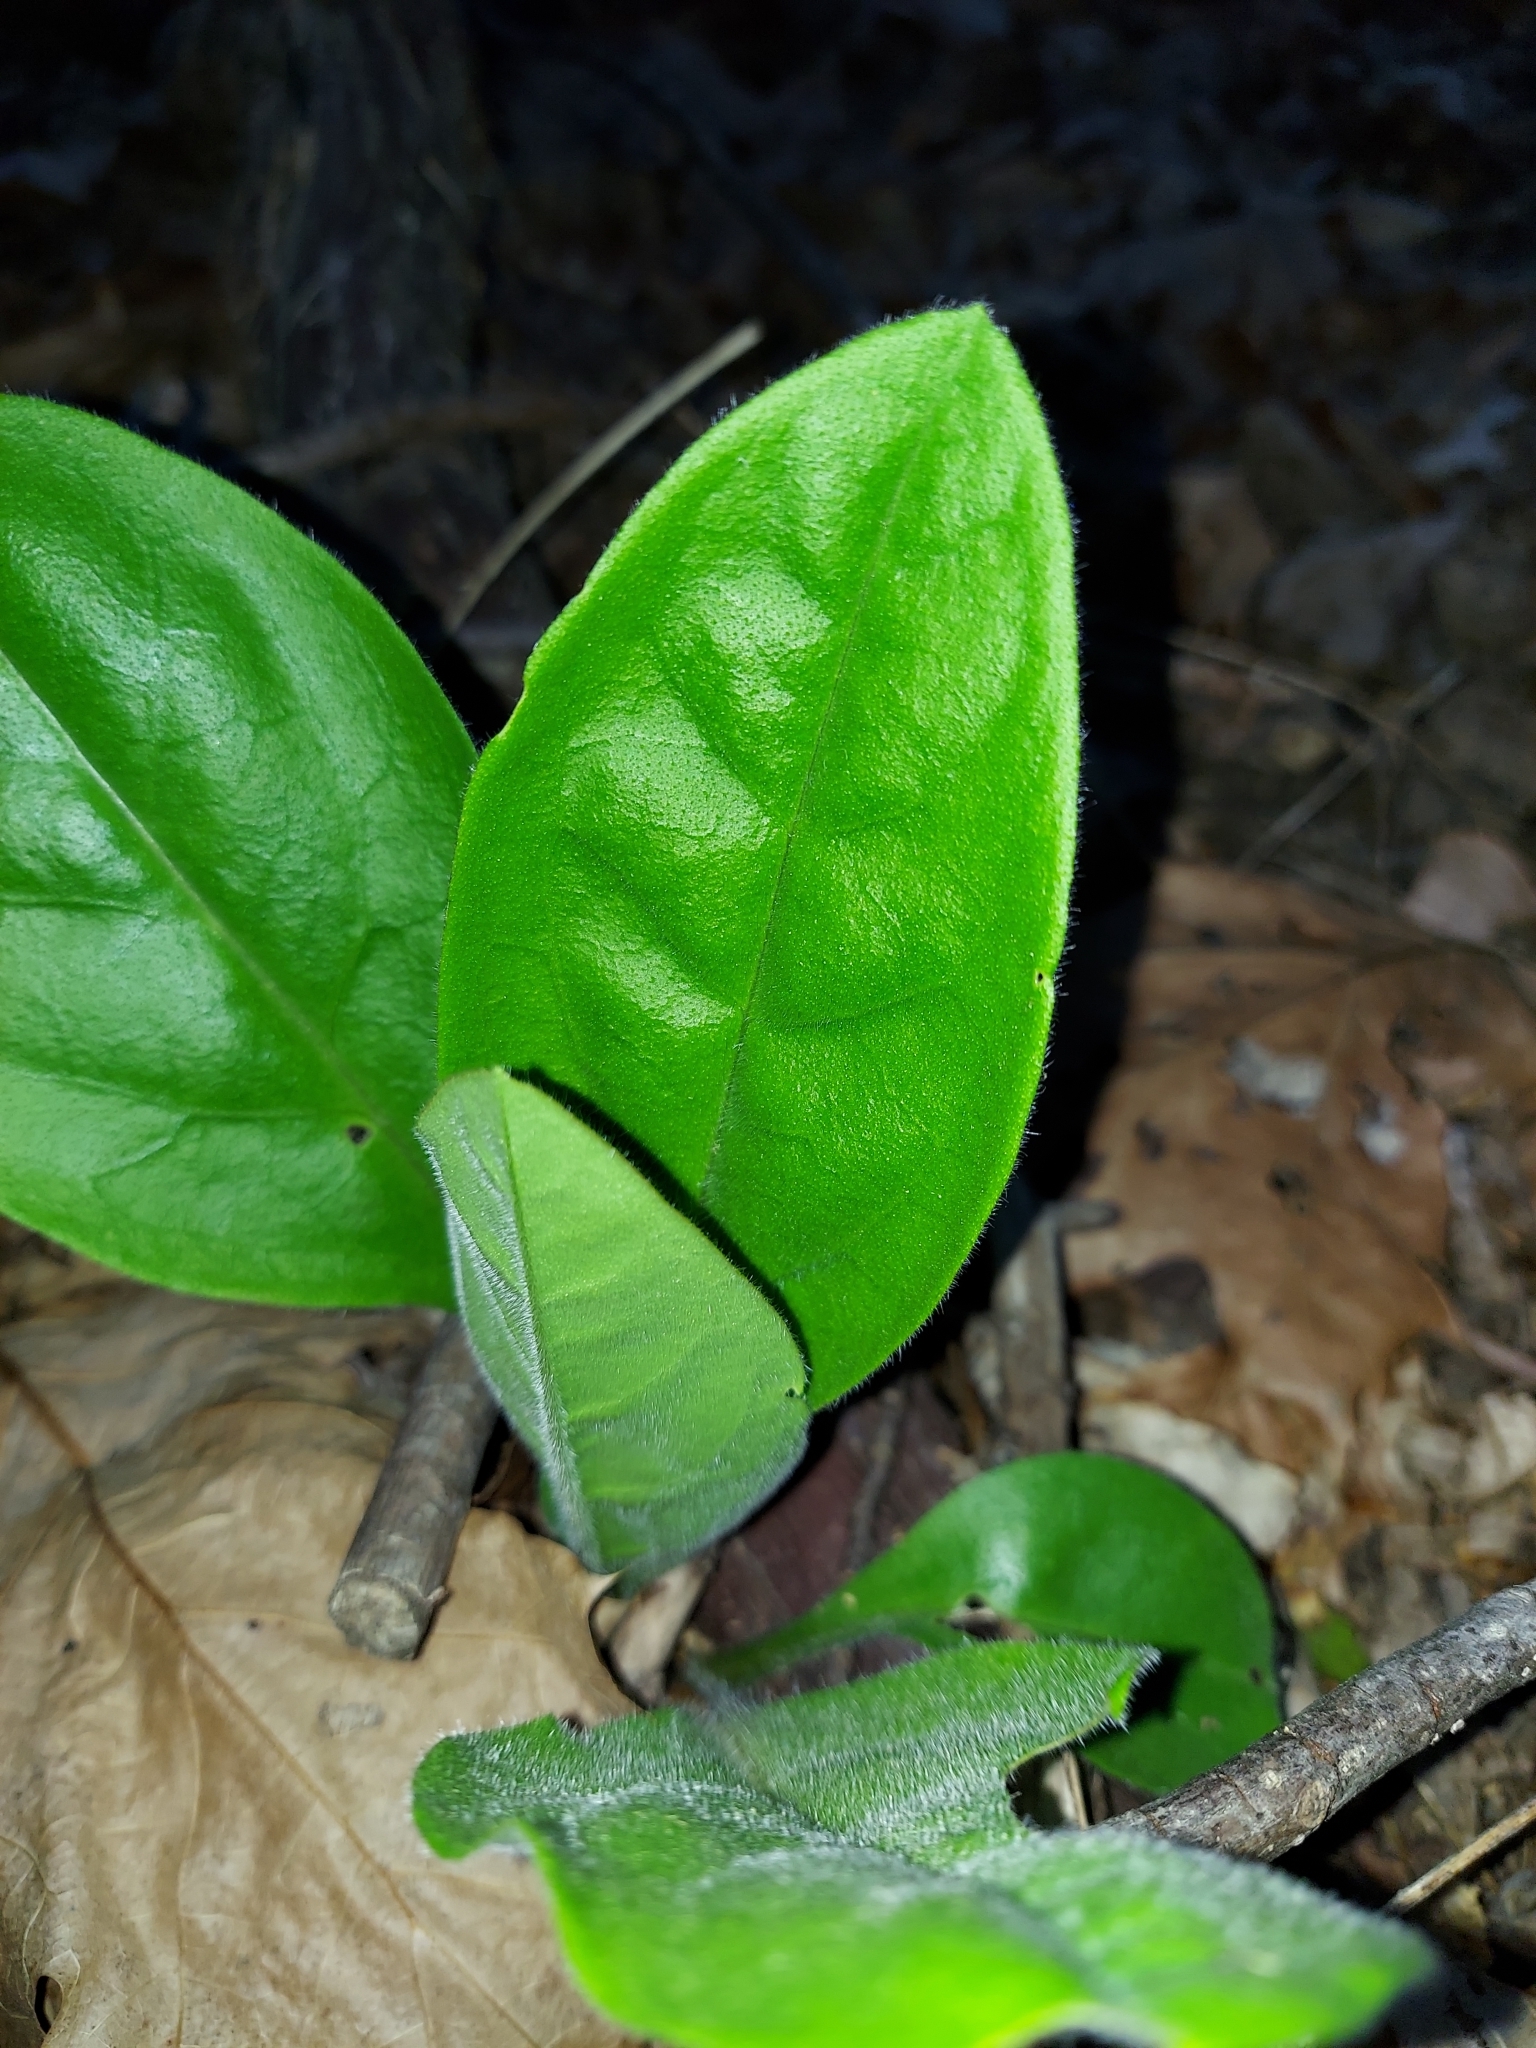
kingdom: Plantae
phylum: Tracheophyta
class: Magnoliopsida
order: Boraginales
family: Boraginaceae
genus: Andersonglossum
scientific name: Andersonglossum virginianum
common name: Wild comfrey
